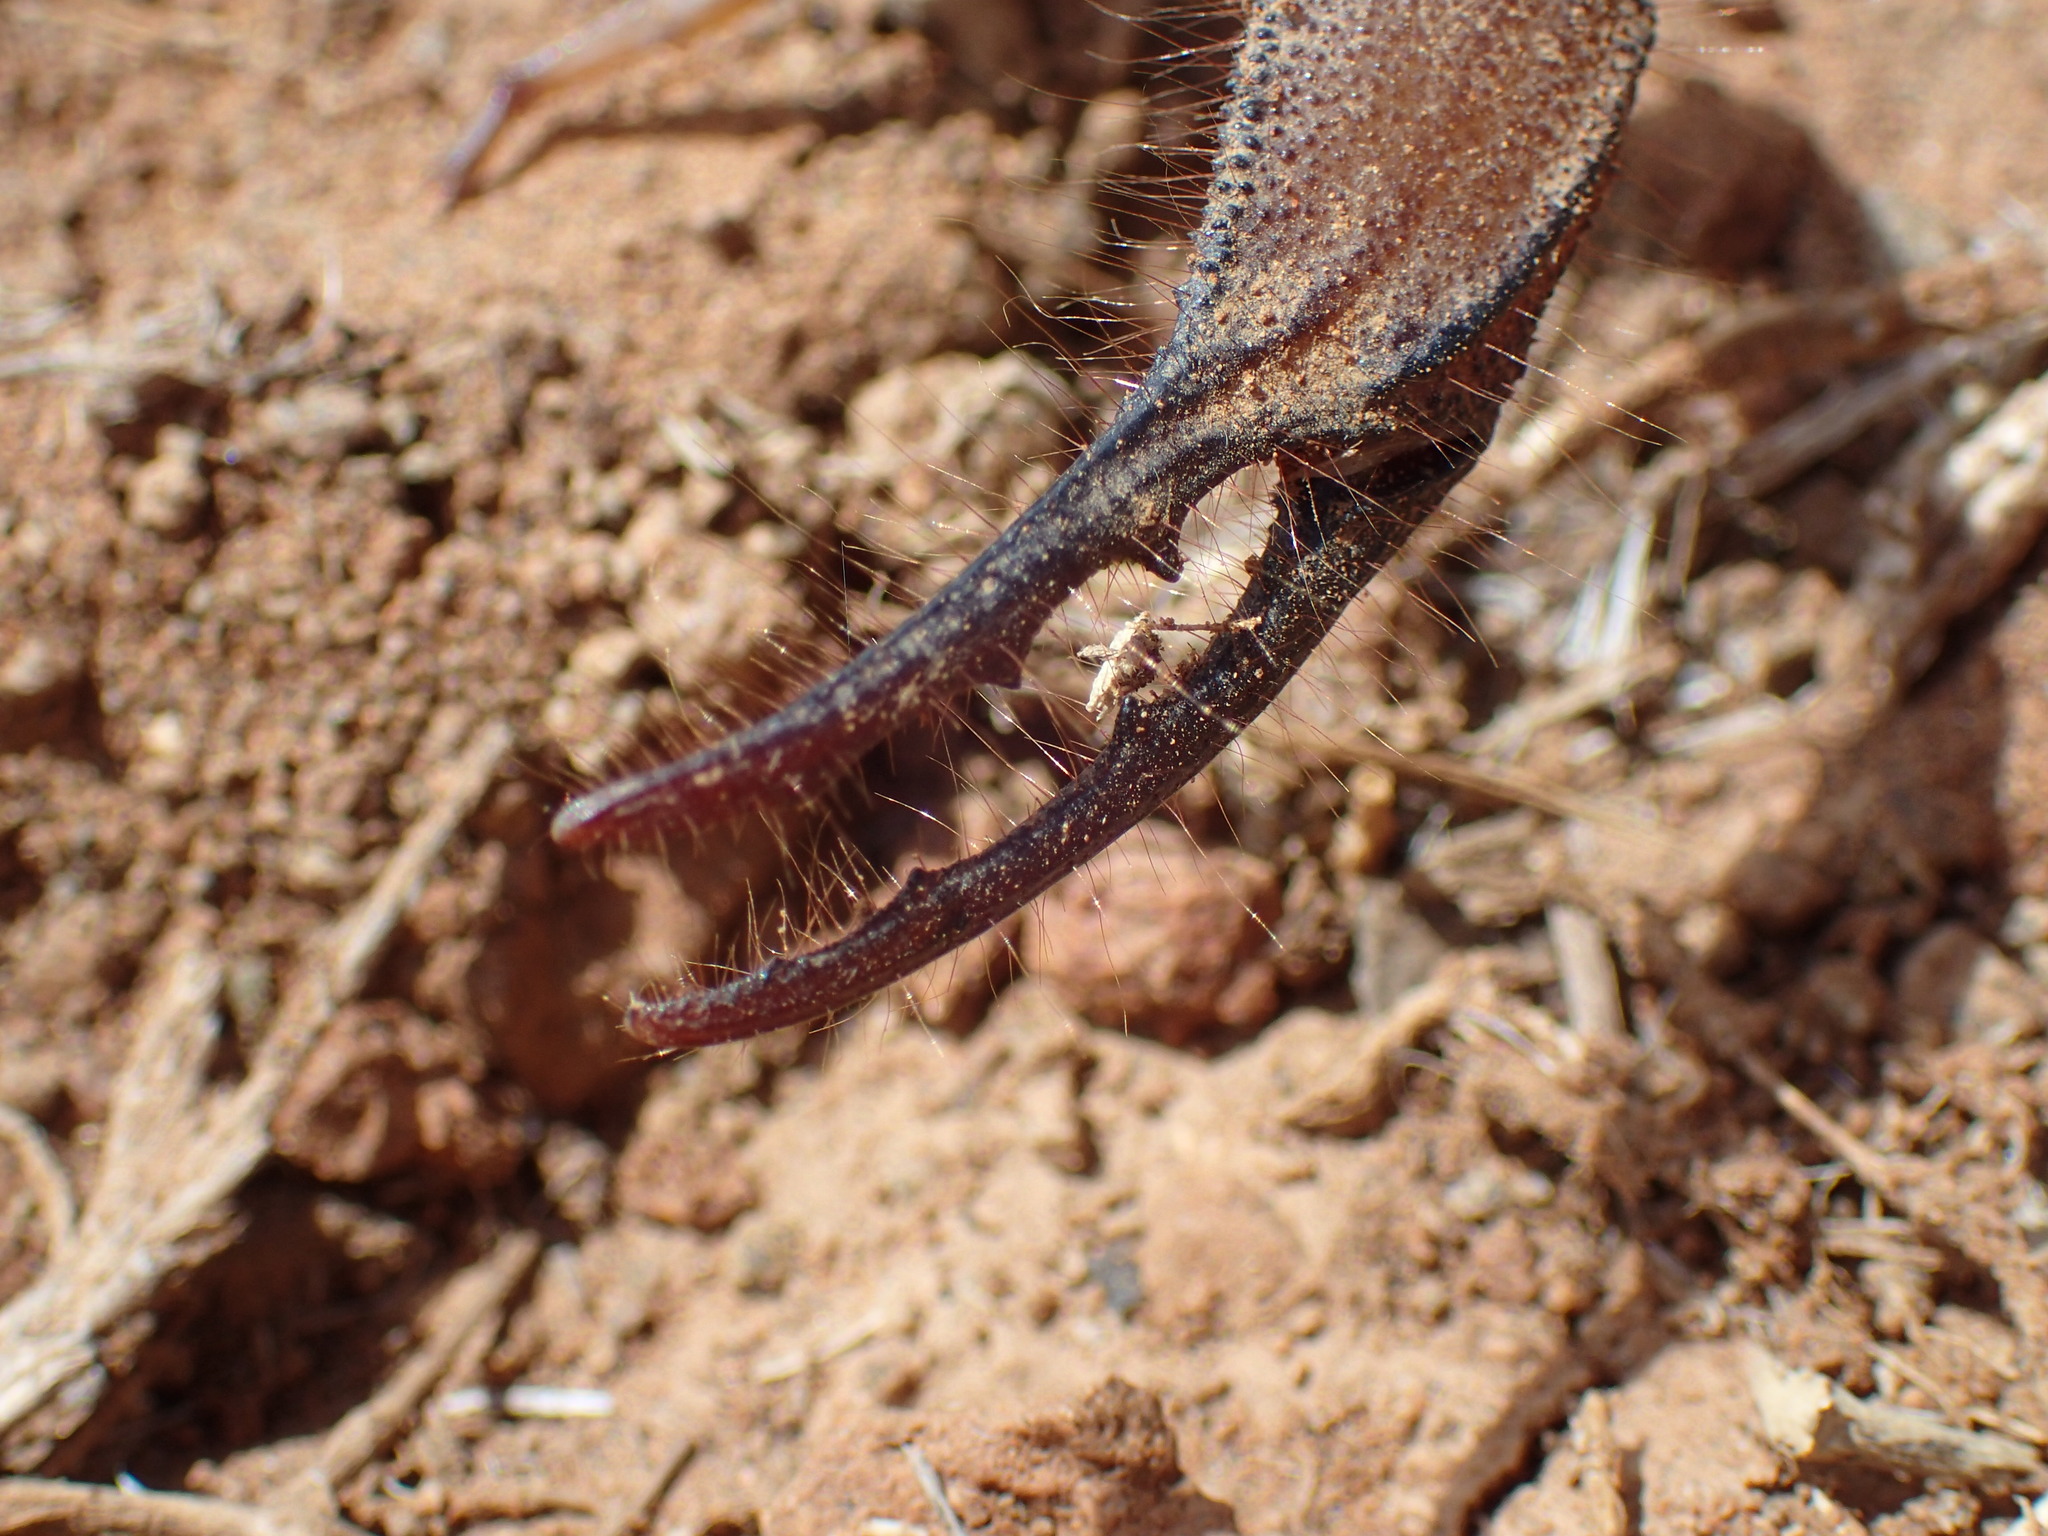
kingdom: Animalia
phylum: Arthropoda
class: Arachnida
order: Scorpiones
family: Scorpionidae
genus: Opistophthalmus
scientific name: Opistophthalmus austerus
